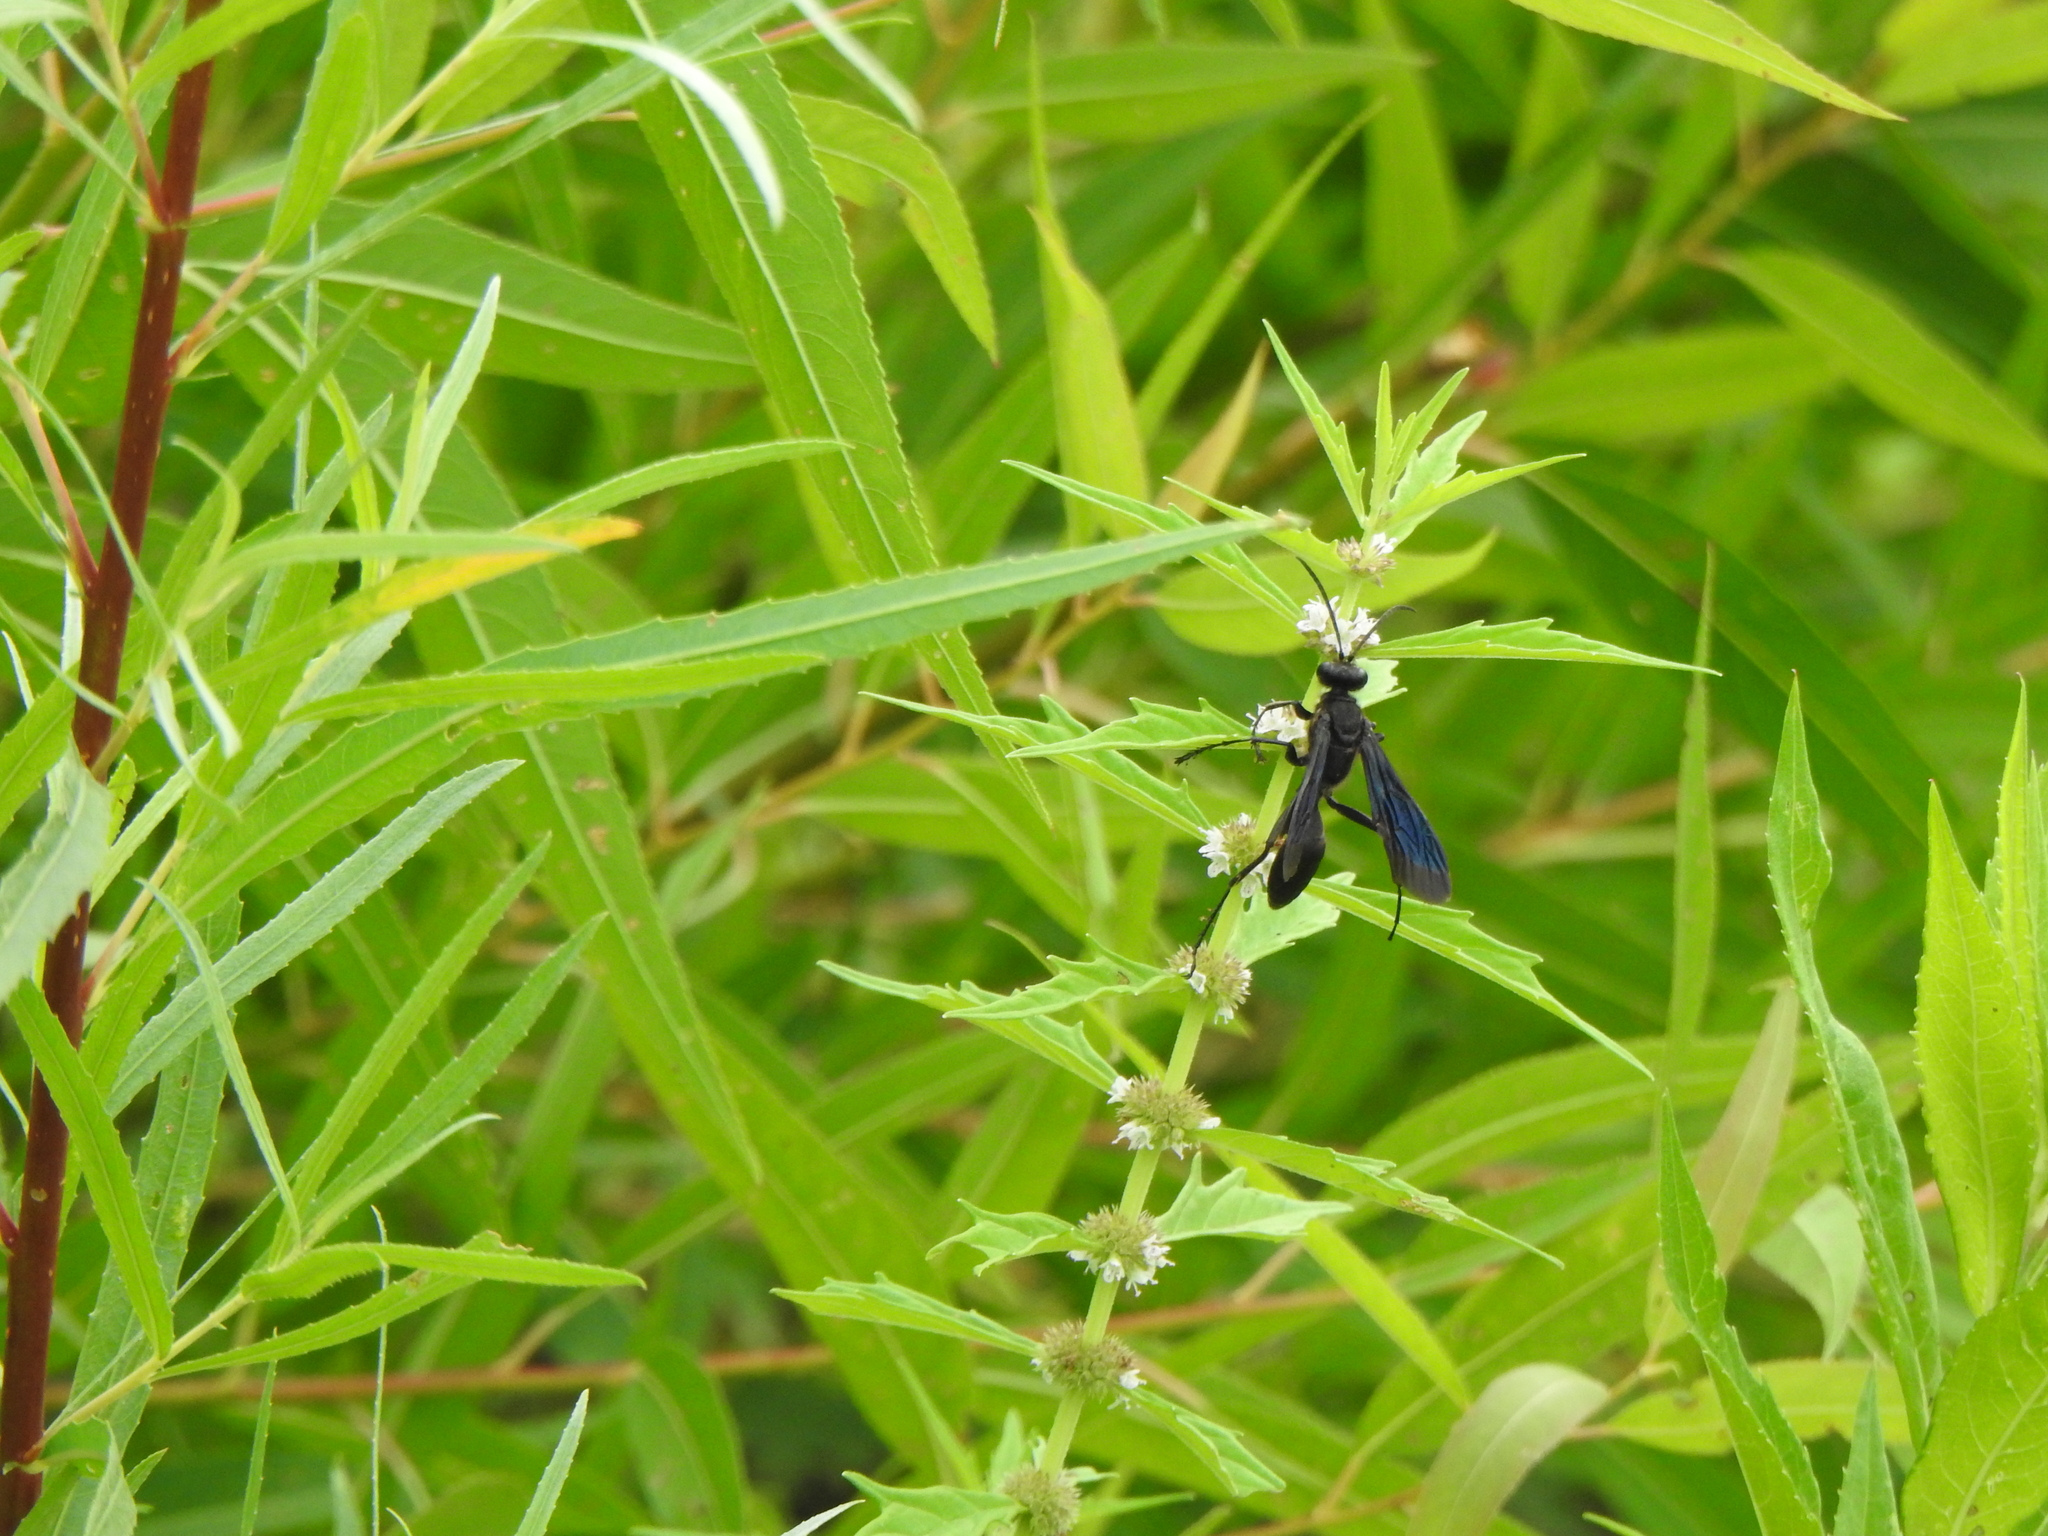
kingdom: Animalia
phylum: Arthropoda
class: Insecta
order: Hymenoptera
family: Sphecidae
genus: Sphex
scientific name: Sphex pensylvanicus
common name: Great black digger wasp
